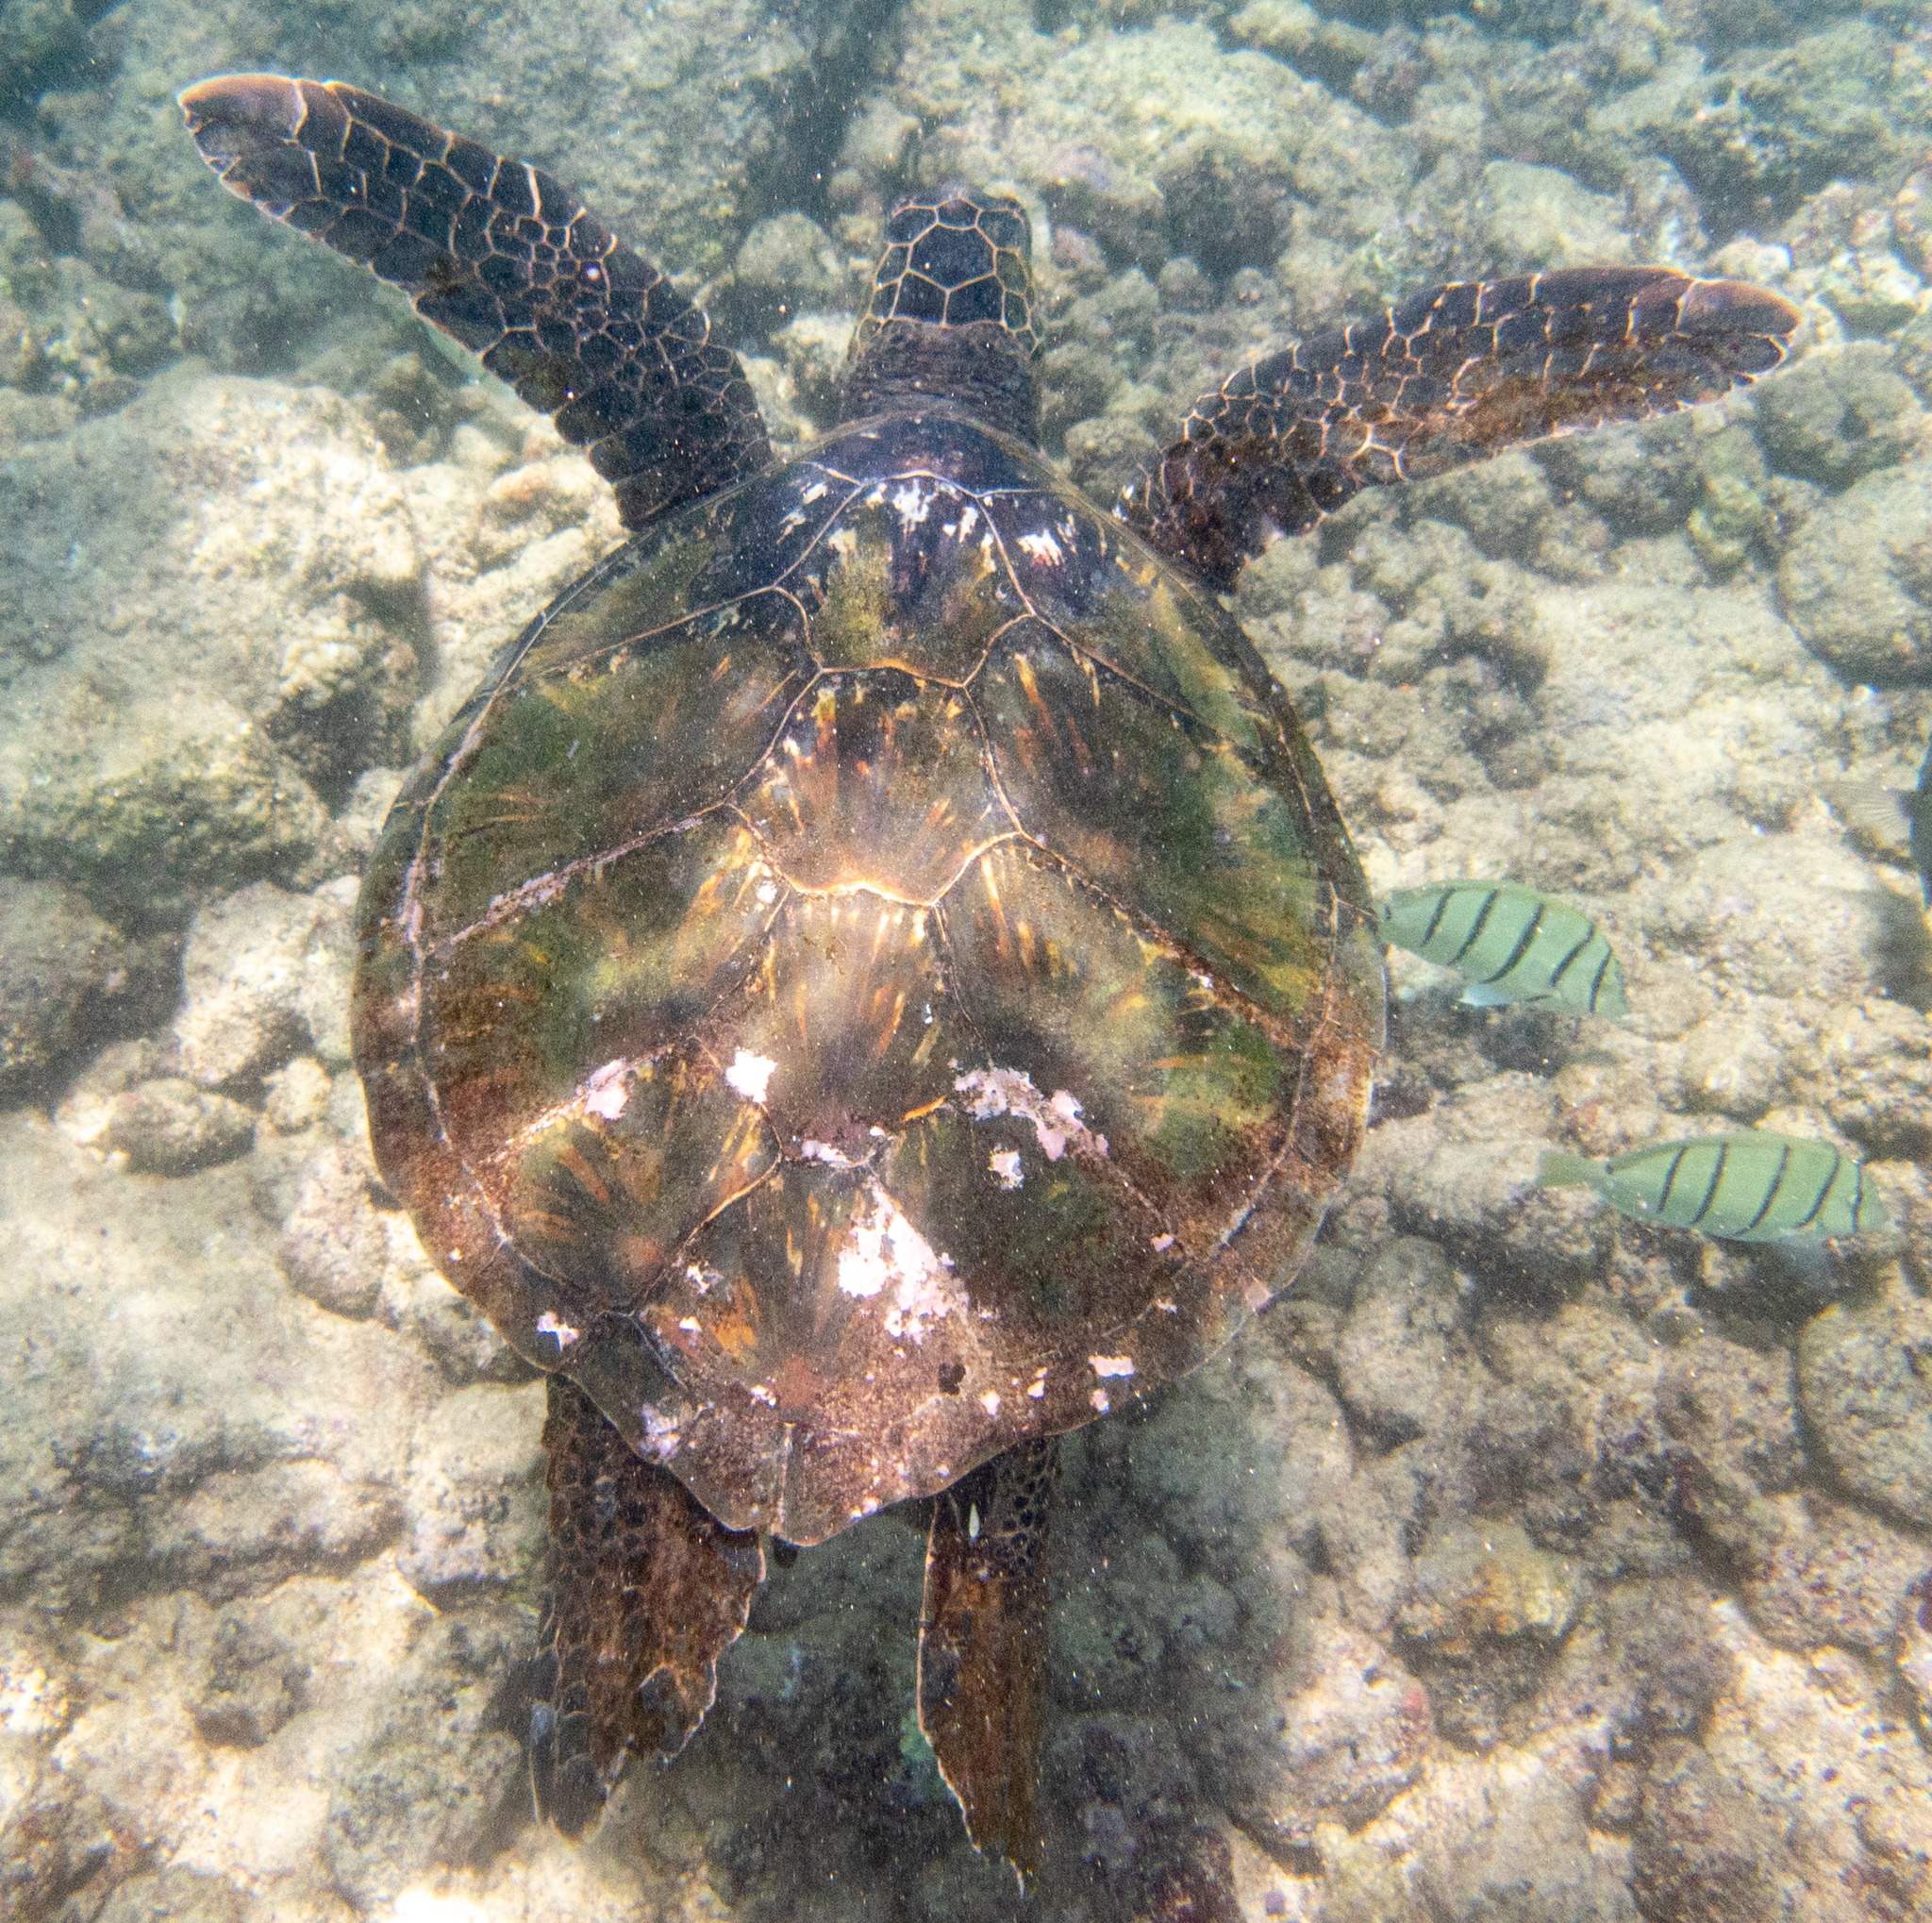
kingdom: Animalia
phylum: Chordata
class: Testudines
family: Cheloniidae
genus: Chelonia
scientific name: Chelonia mydas
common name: Green turtle
